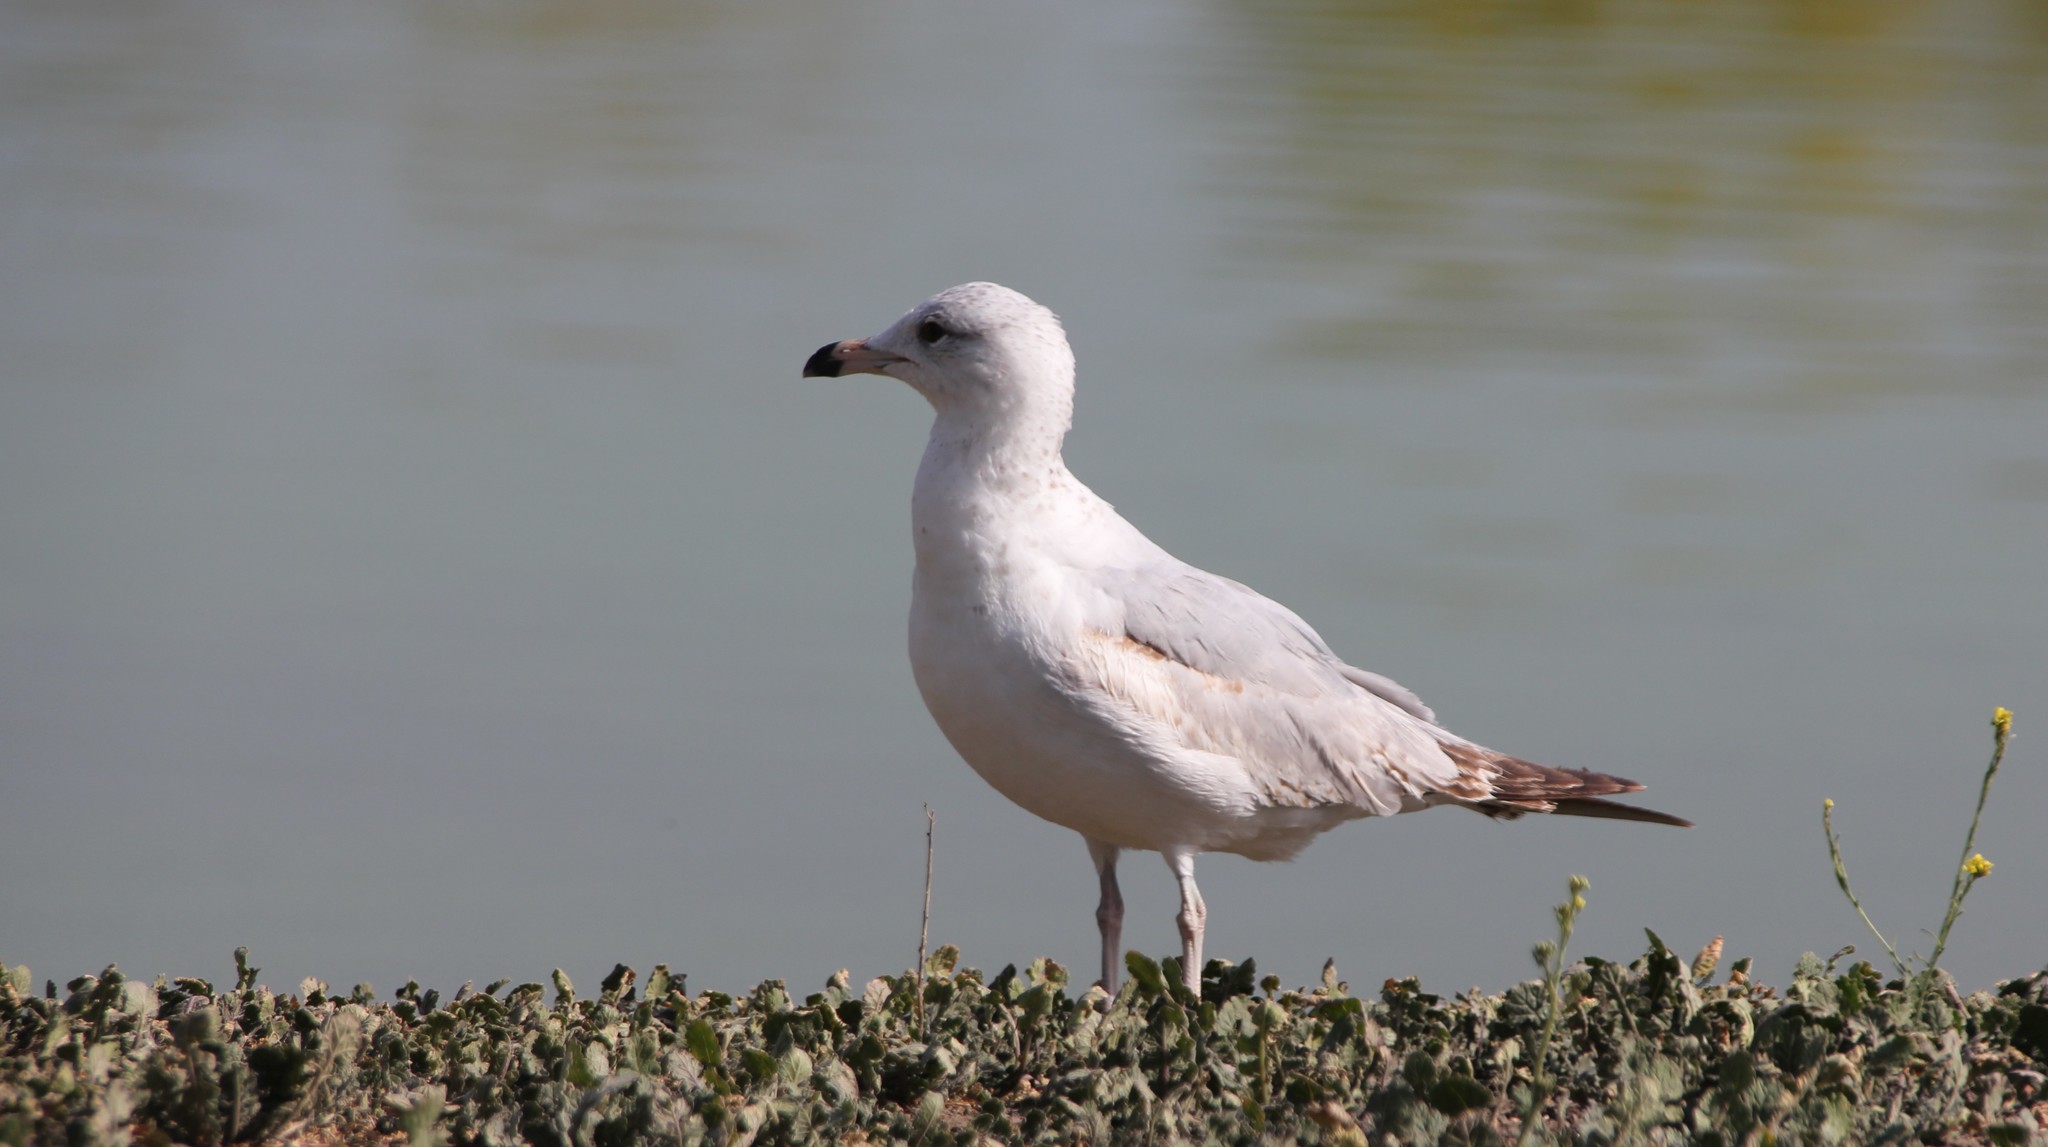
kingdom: Animalia
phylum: Chordata
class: Aves
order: Charadriiformes
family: Laridae
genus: Larus
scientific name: Larus delawarensis
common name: Ring-billed gull
